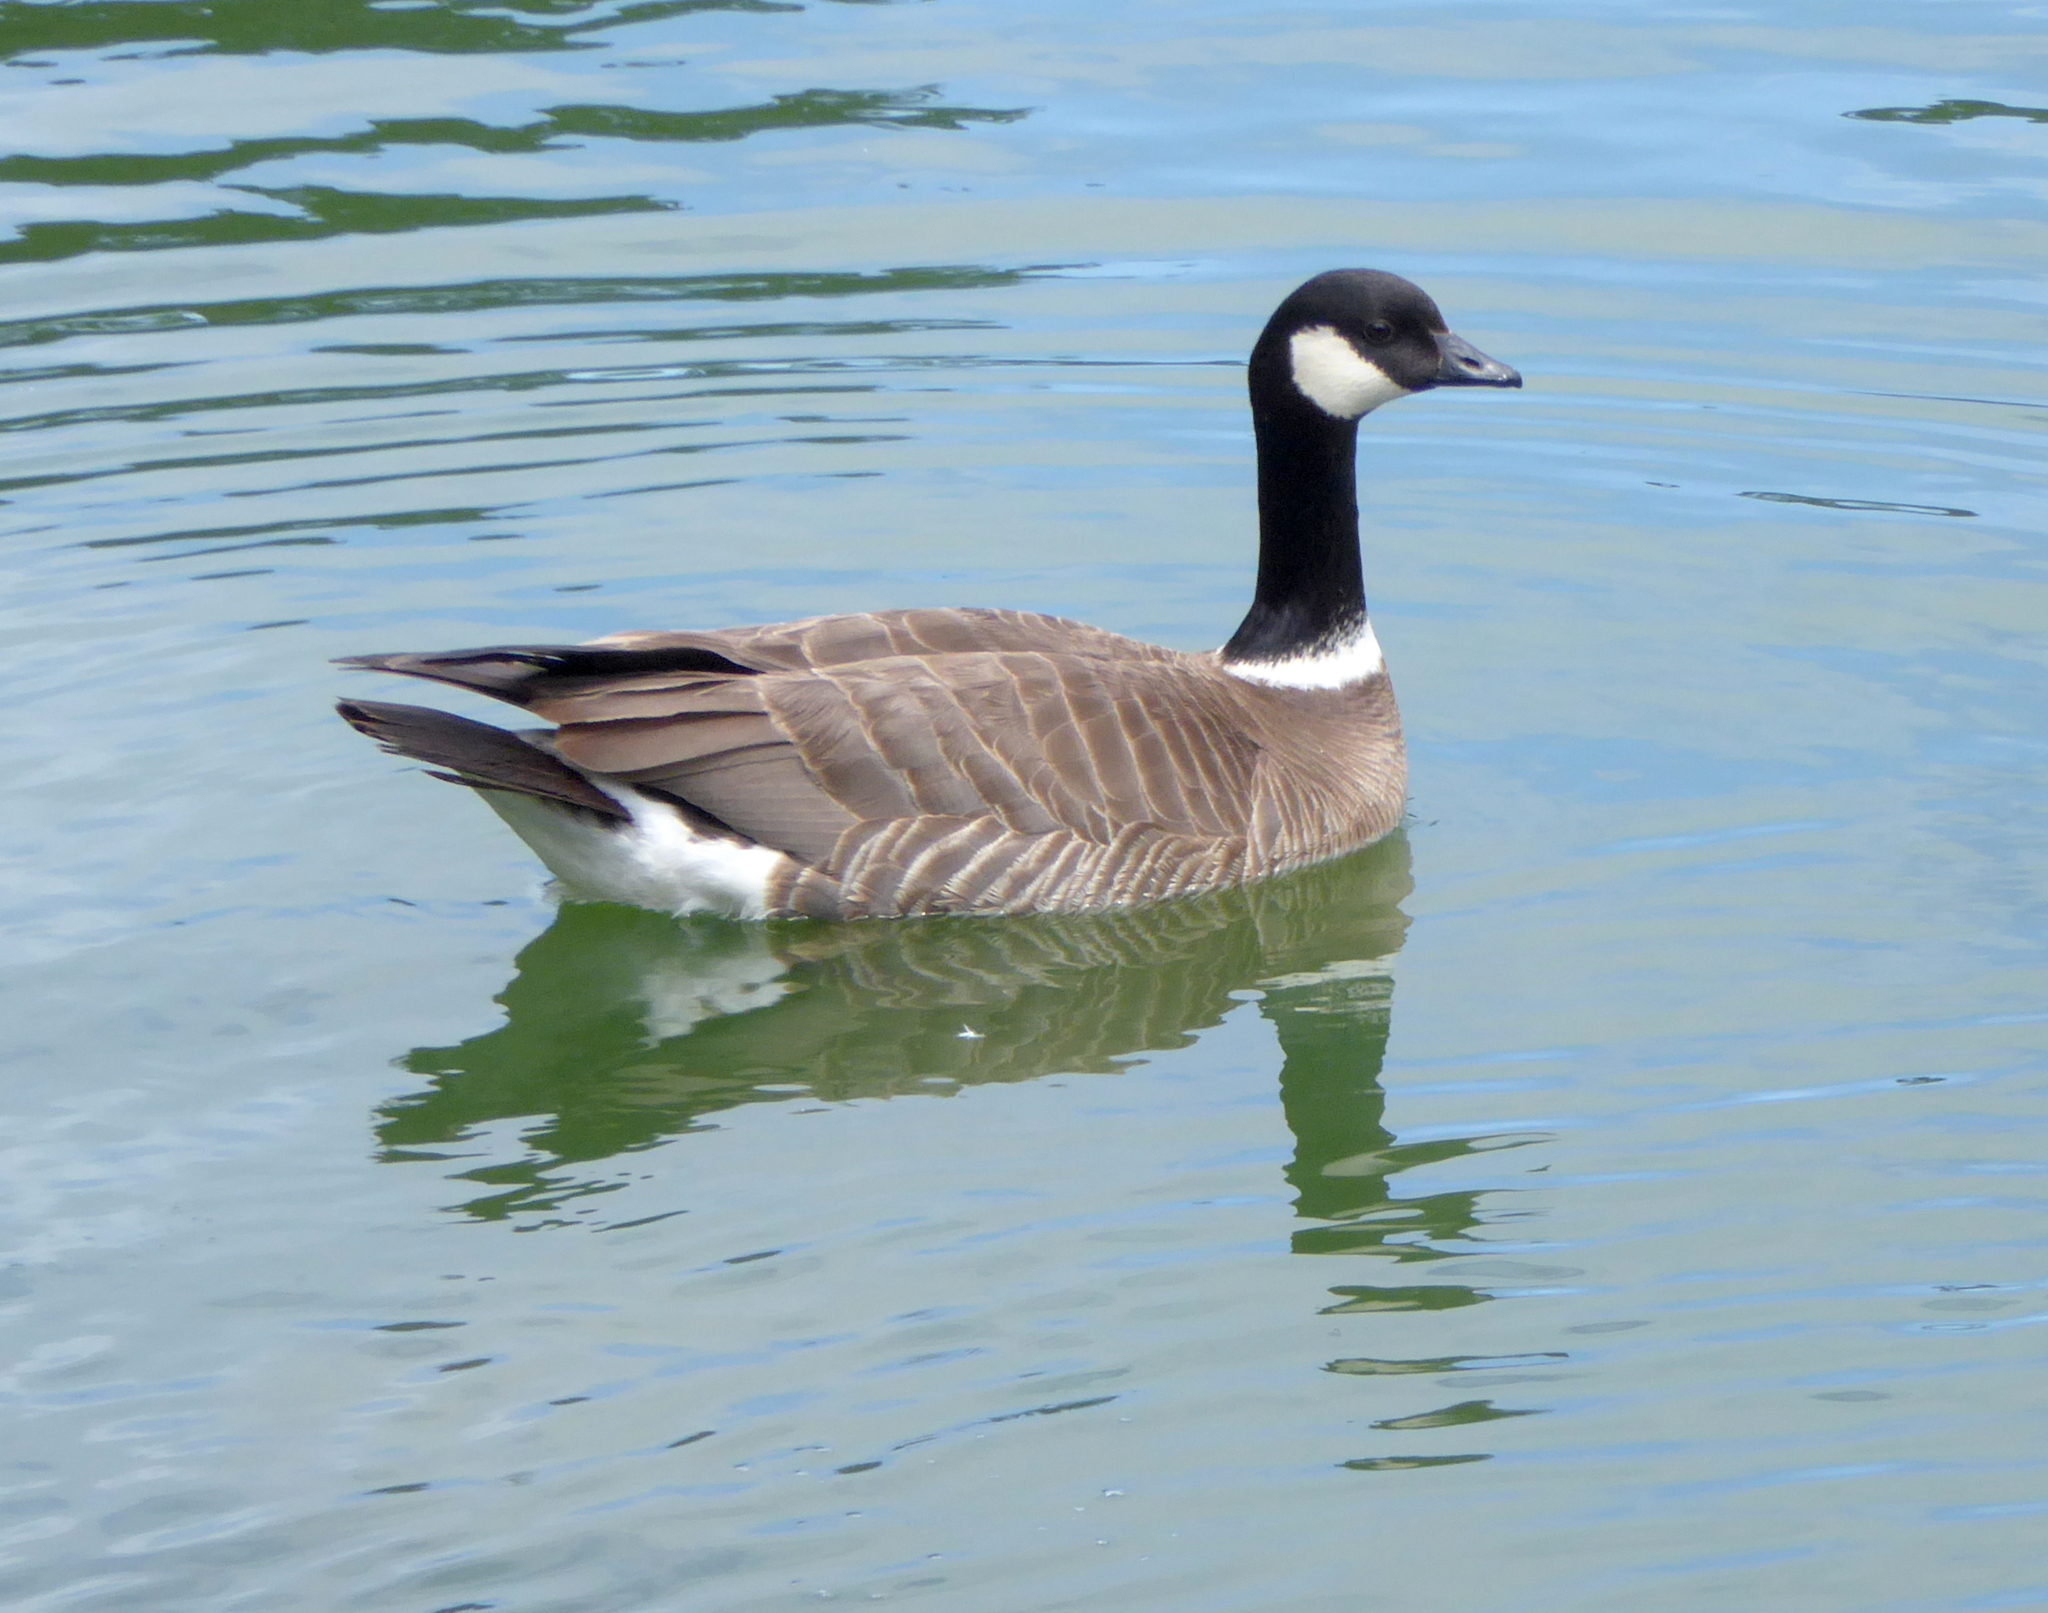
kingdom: Animalia
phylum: Chordata
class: Aves
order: Anseriformes
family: Anatidae
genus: Branta
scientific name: Branta hutchinsii
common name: Cackling goose
